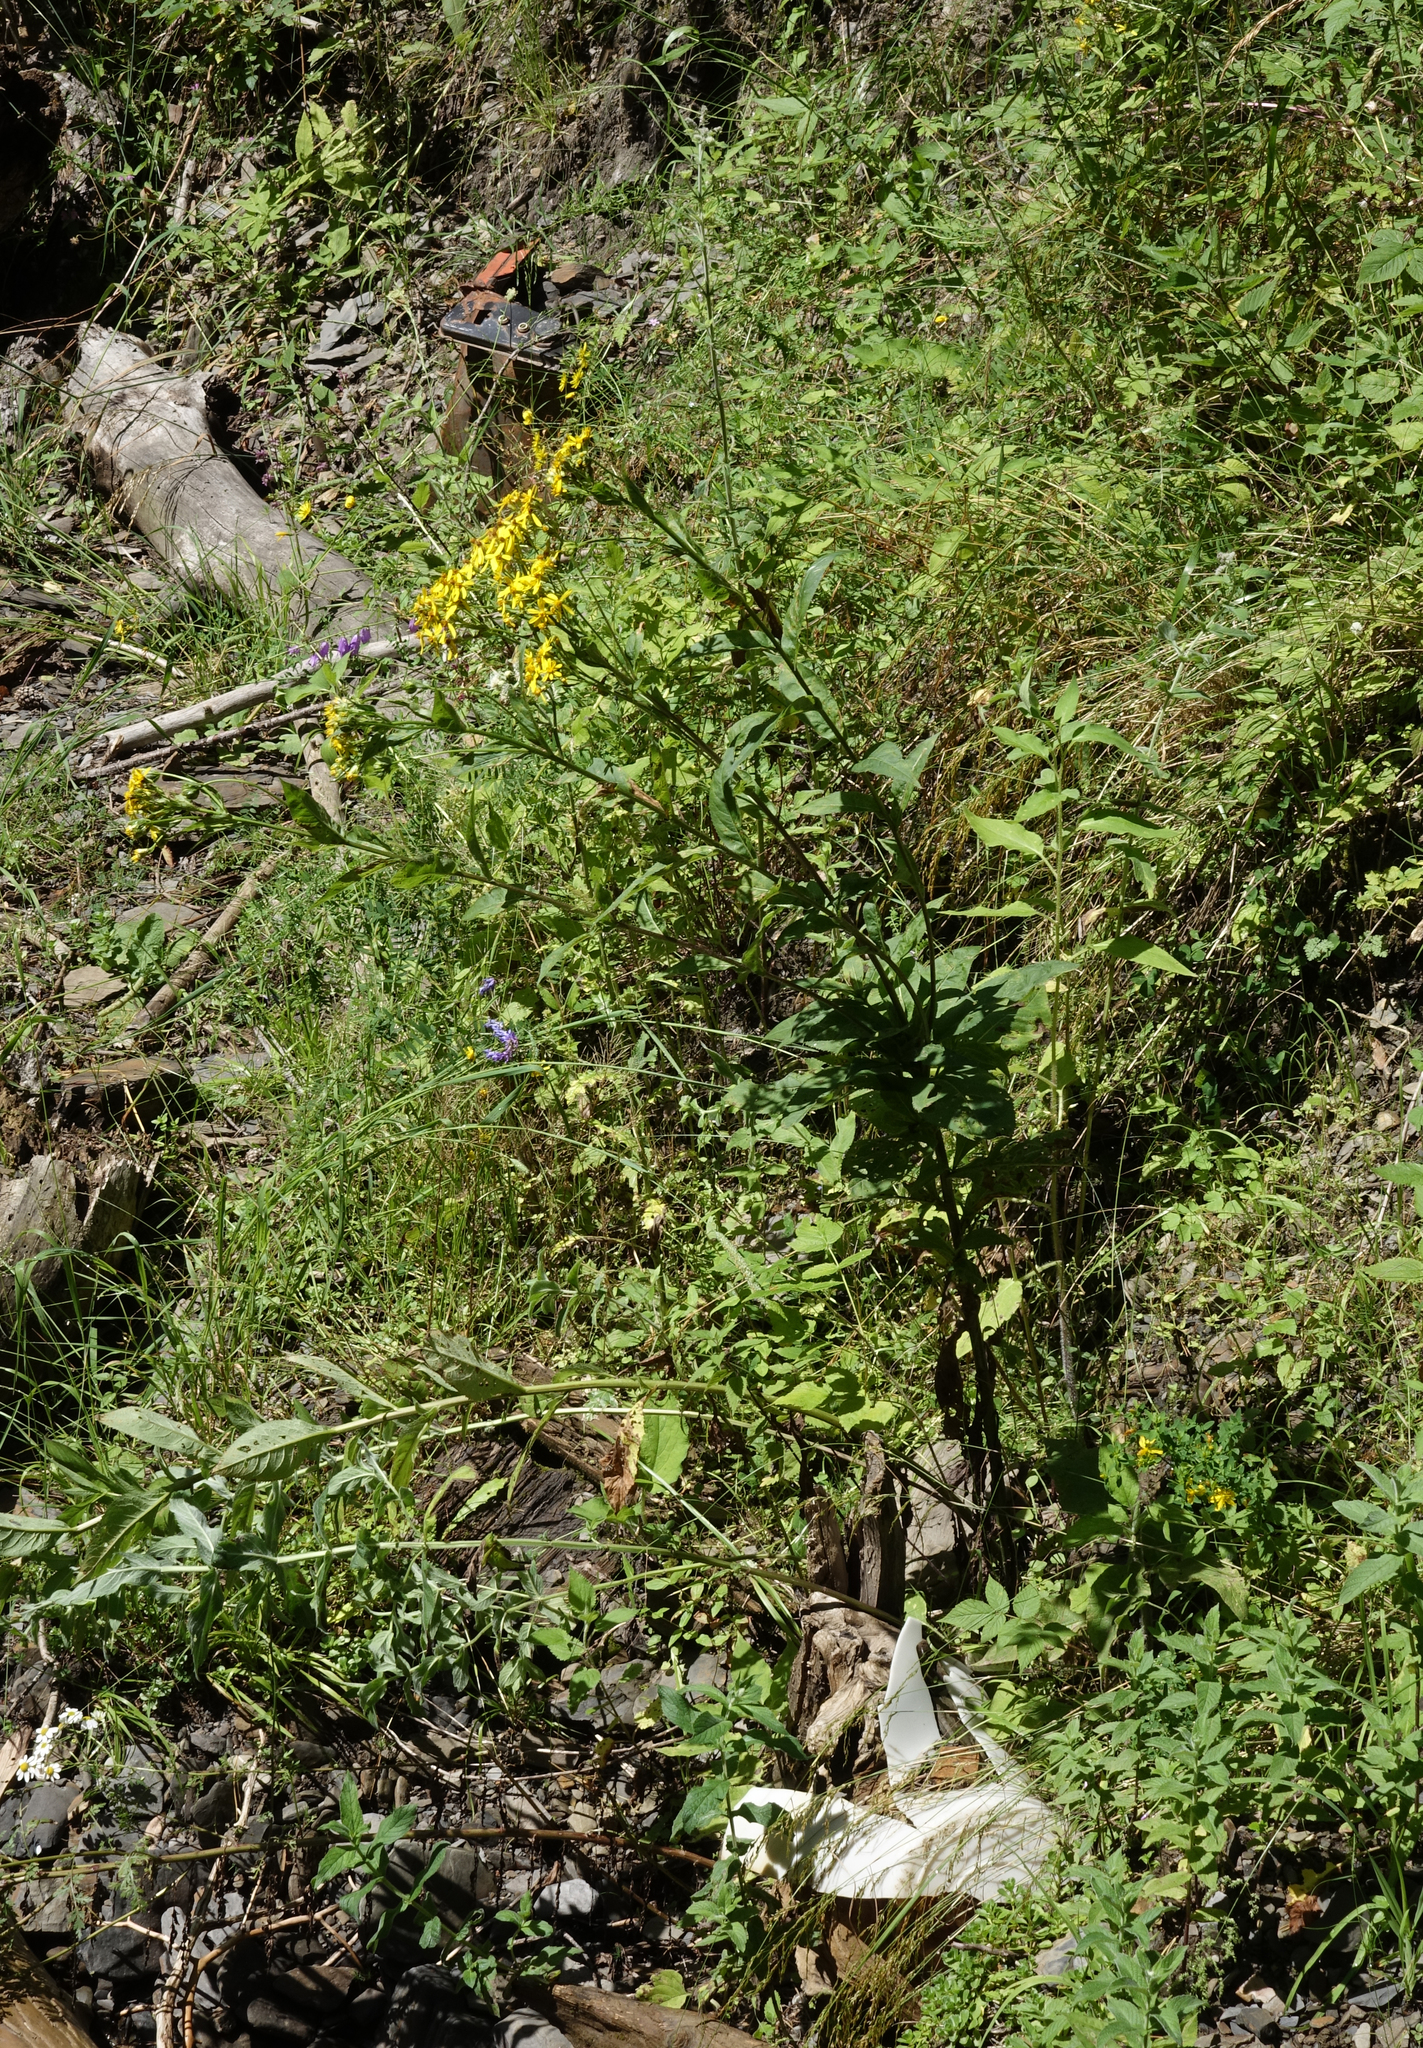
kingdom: Plantae
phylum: Tracheophyta
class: Magnoliopsida
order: Asterales
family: Asteraceae
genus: Senecio
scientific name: Senecio propinquus
